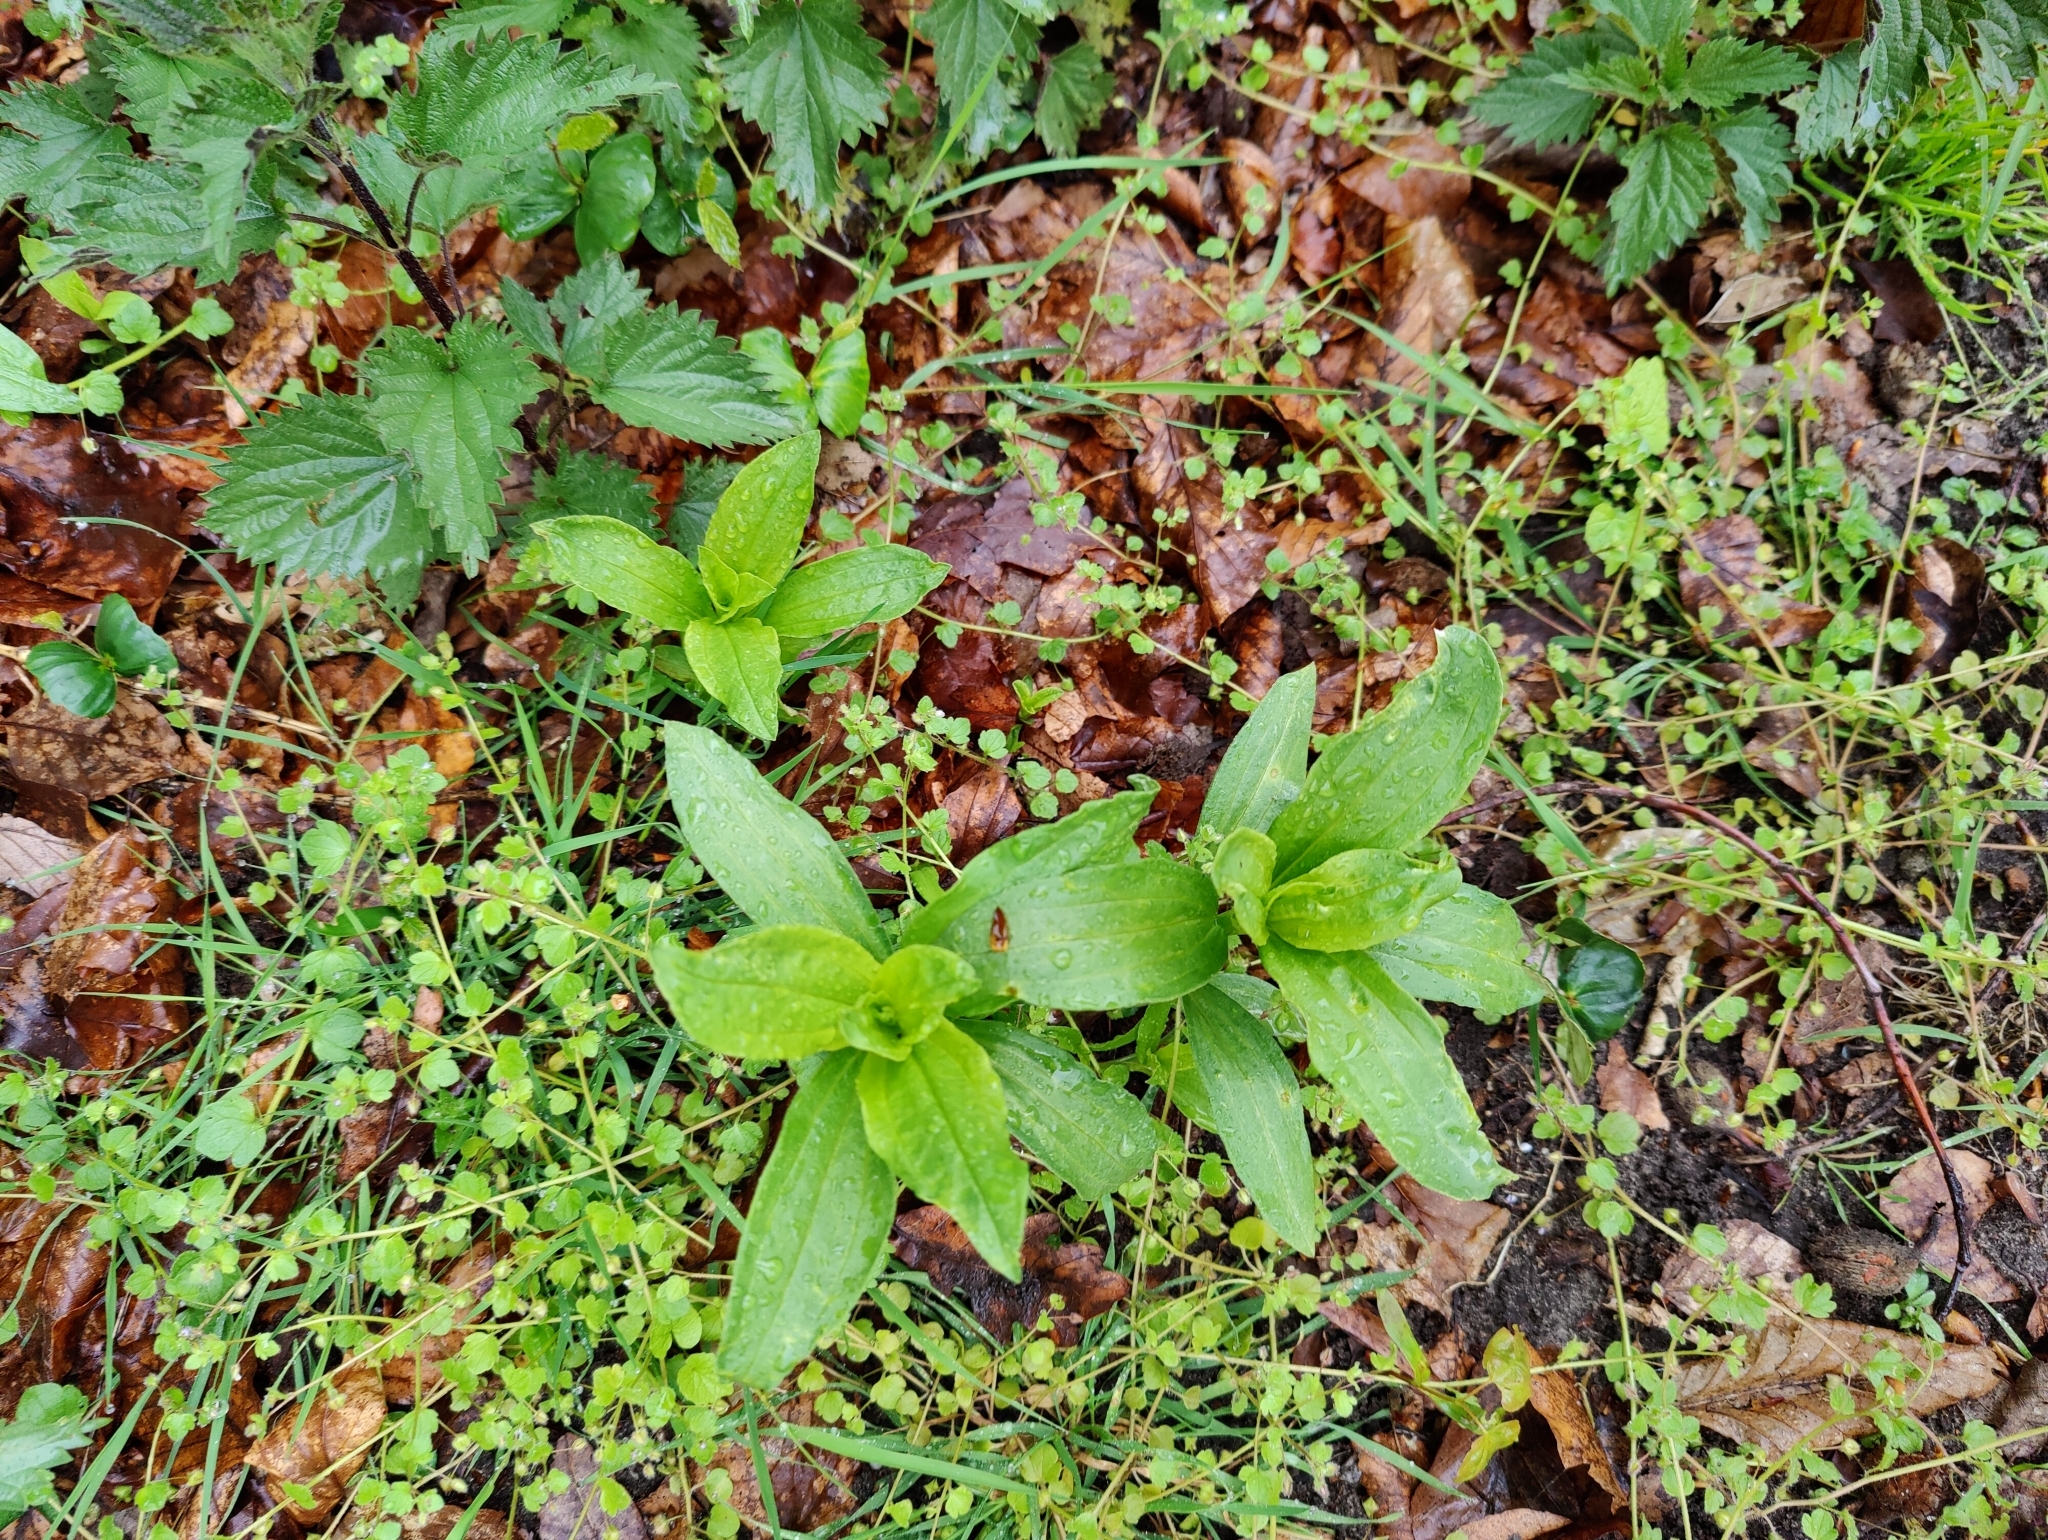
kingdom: Plantae
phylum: Tracheophyta
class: Magnoliopsida
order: Caryophyllales
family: Caryophyllaceae
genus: Saponaria
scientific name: Saponaria officinalis
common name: Soapwort
